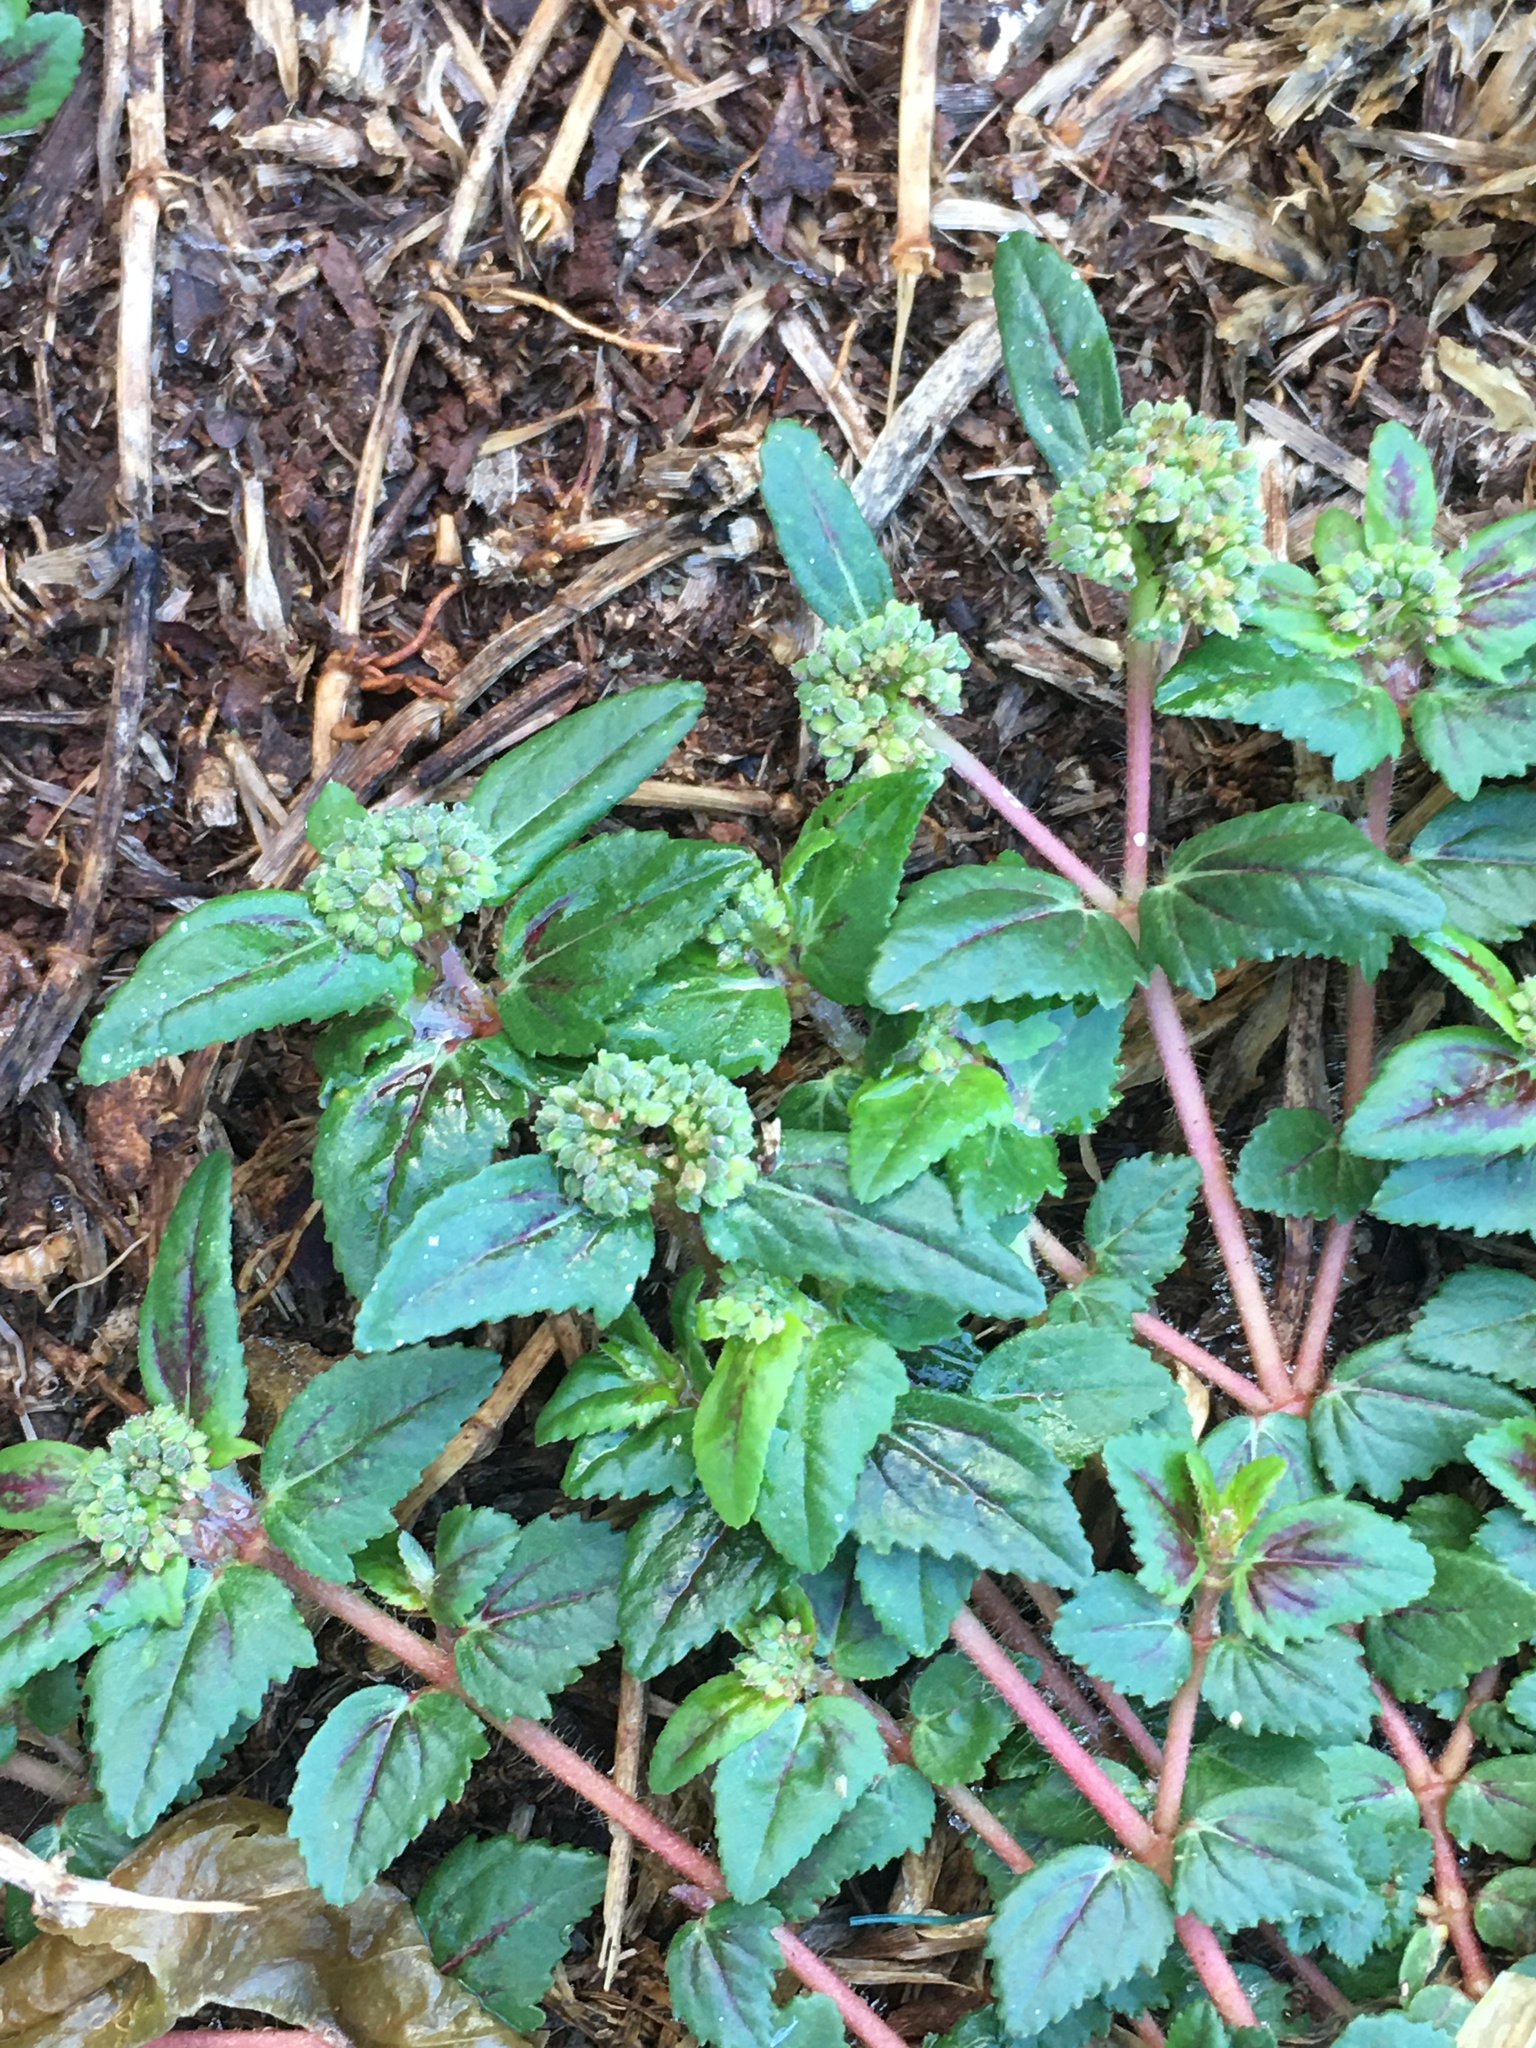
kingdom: Plantae
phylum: Tracheophyta
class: Magnoliopsida
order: Malpighiales
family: Euphorbiaceae
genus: Euphorbia
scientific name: Euphorbia ophthalmica
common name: Florida hammock sandmat
